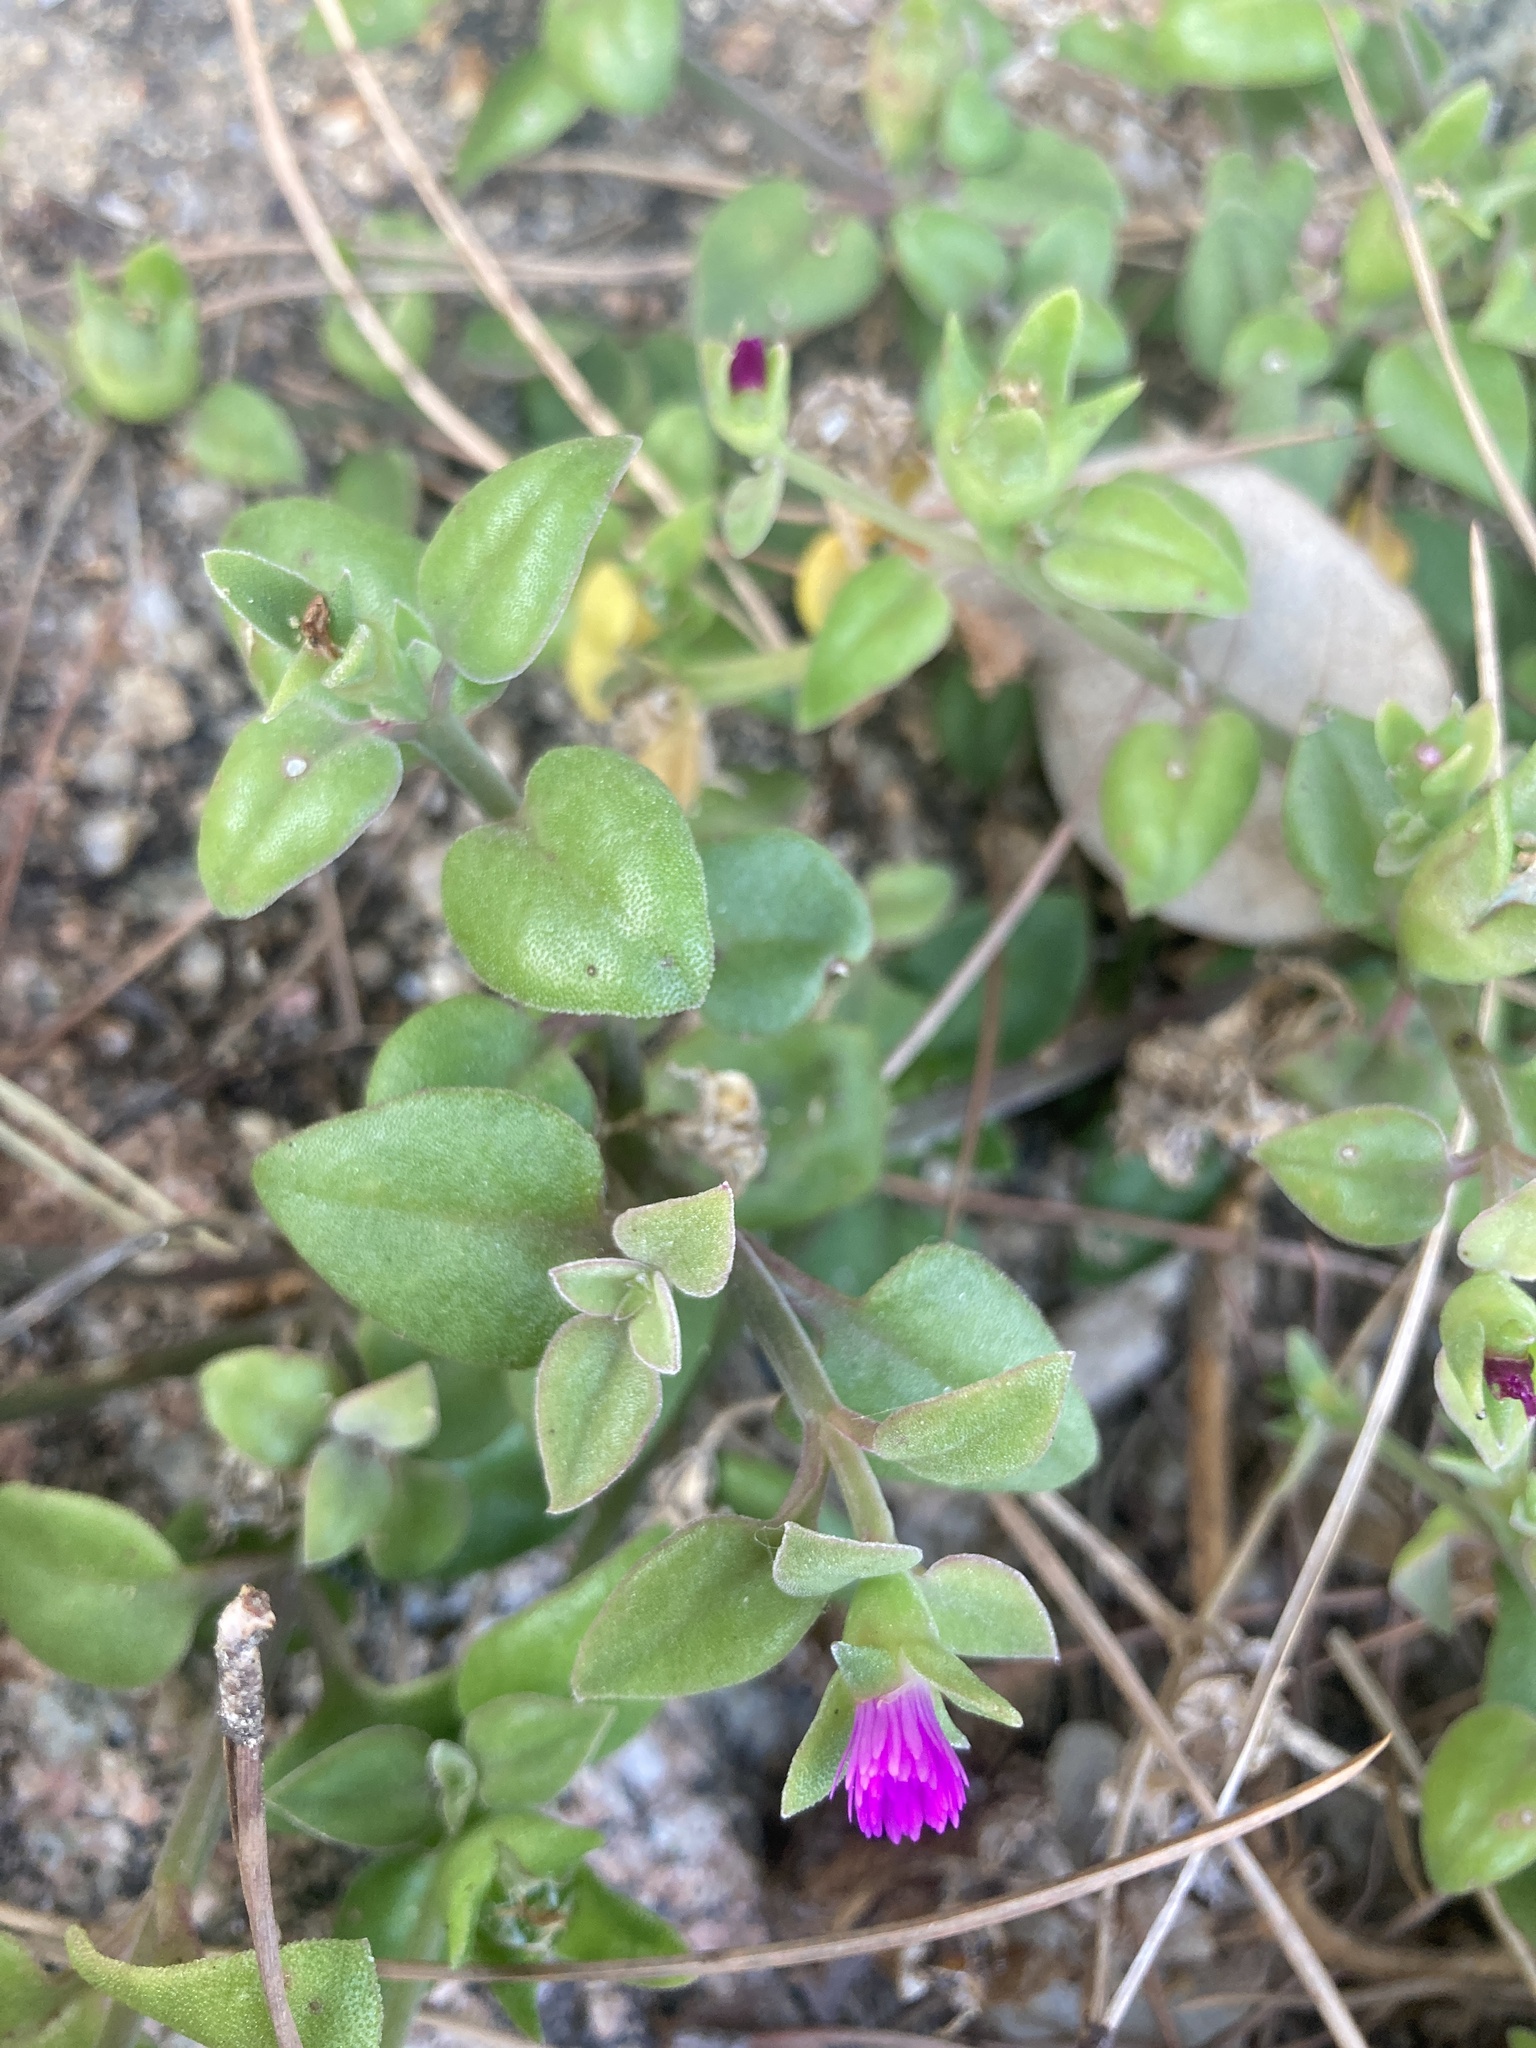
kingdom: Plantae
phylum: Tracheophyta
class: Magnoliopsida
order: Caryophyllales
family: Aizoaceae
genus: Mesembryanthemum
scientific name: Mesembryanthemum cordifolium
